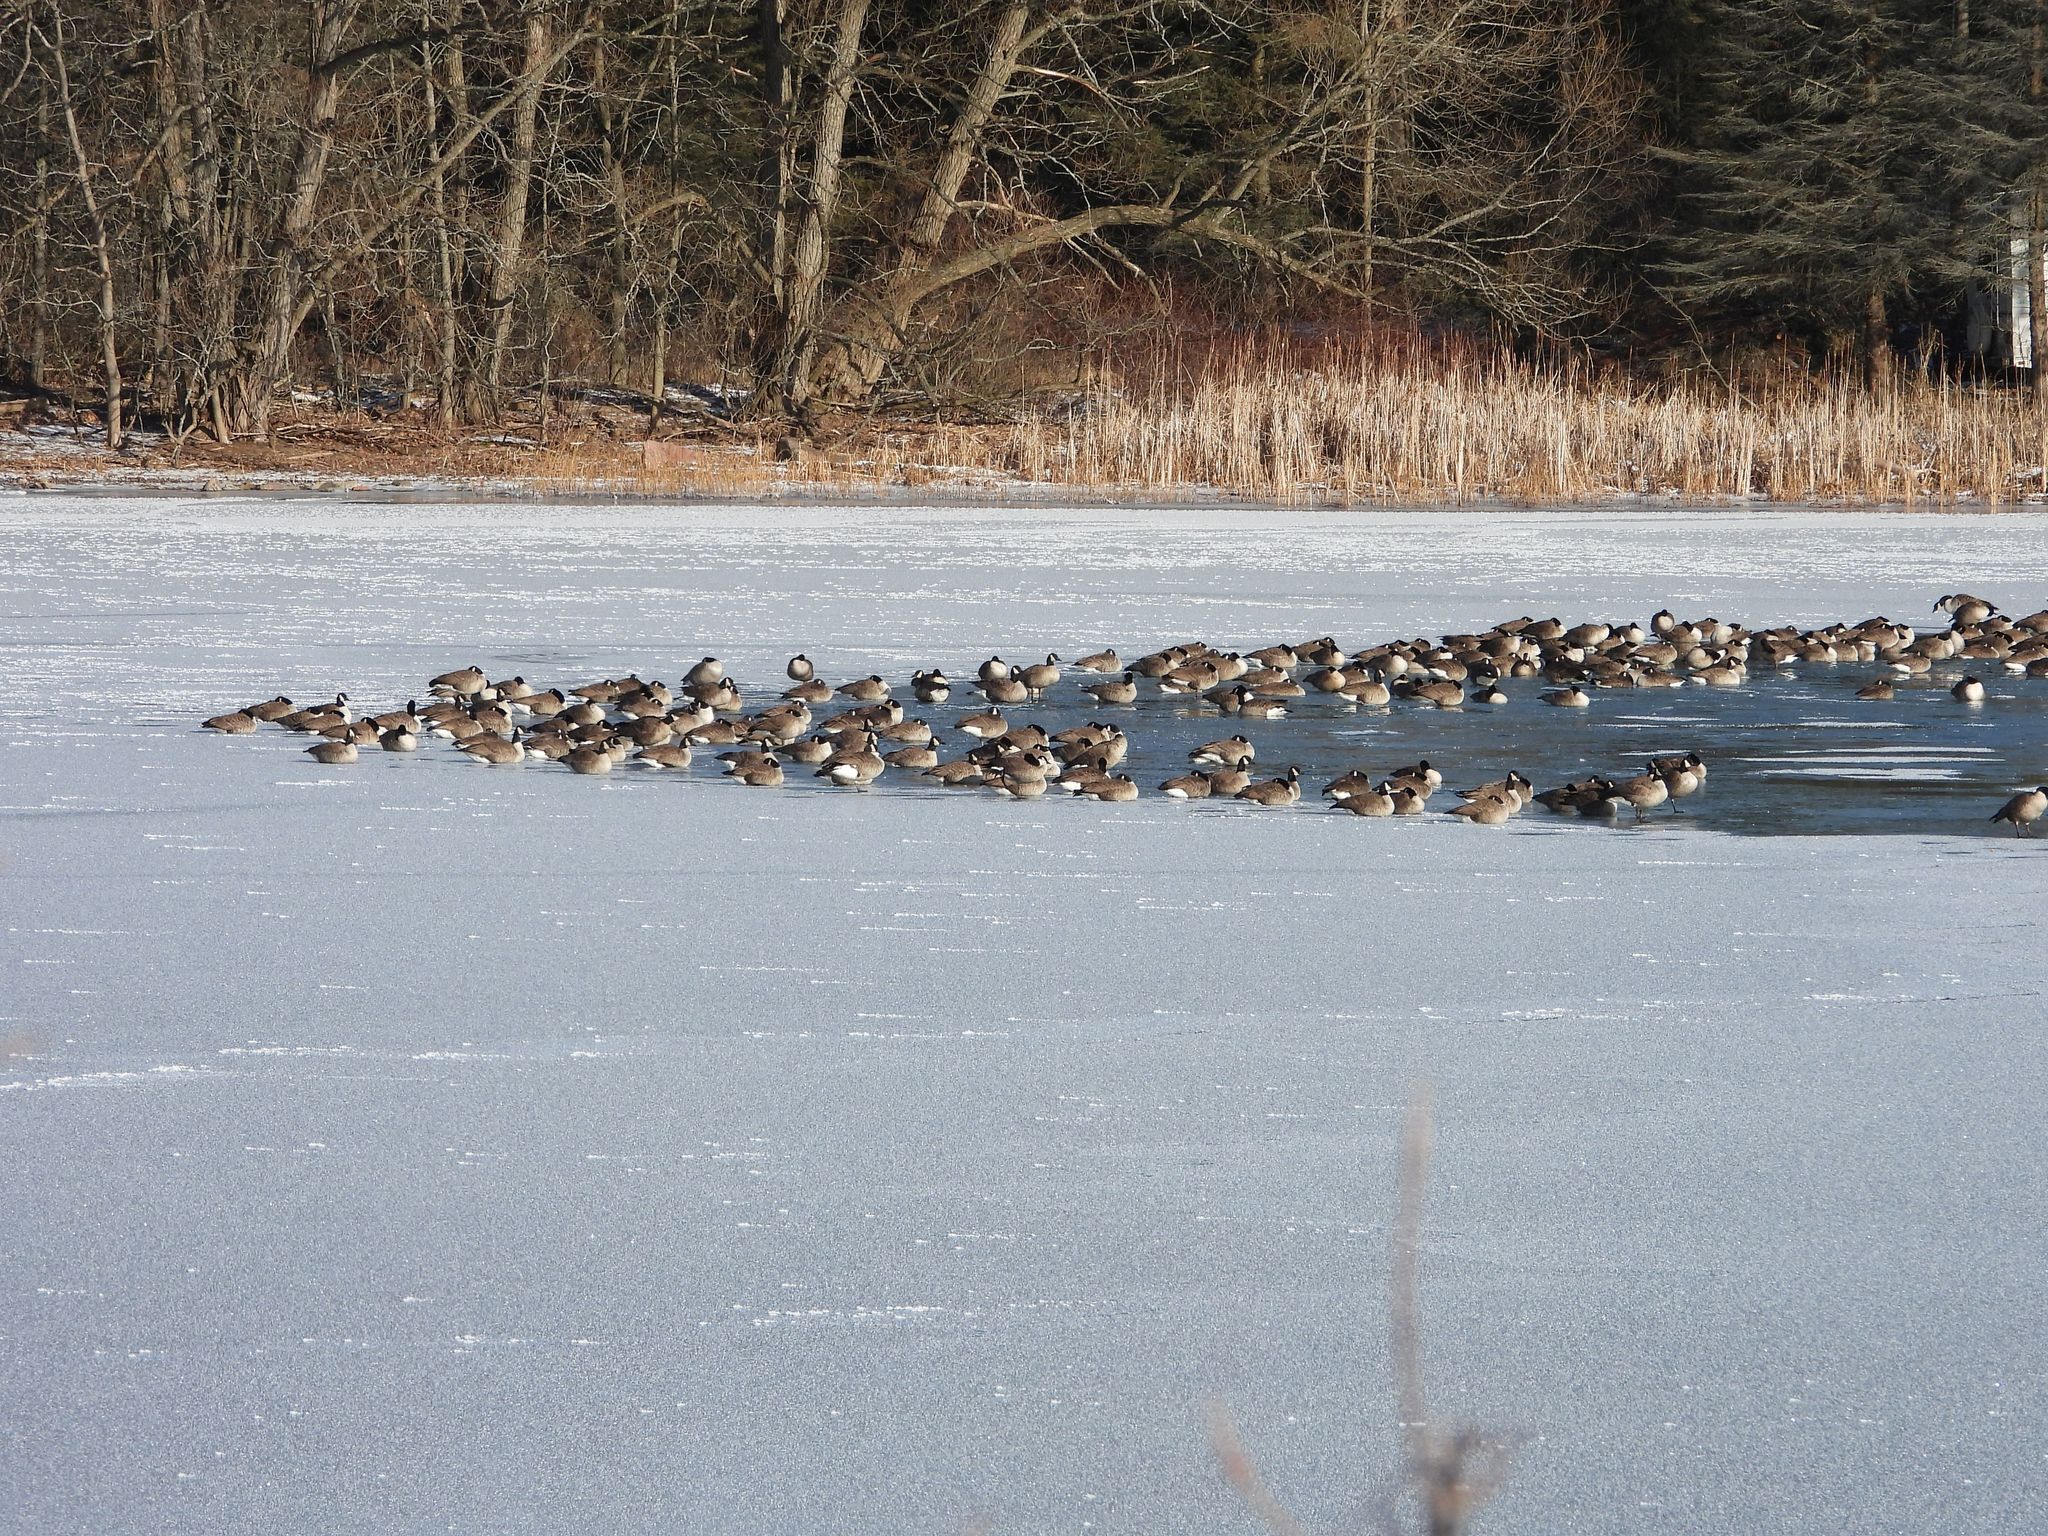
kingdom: Animalia
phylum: Chordata
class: Aves
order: Anseriformes
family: Anatidae
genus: Branta
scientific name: Branta canadensis
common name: Canada goose
